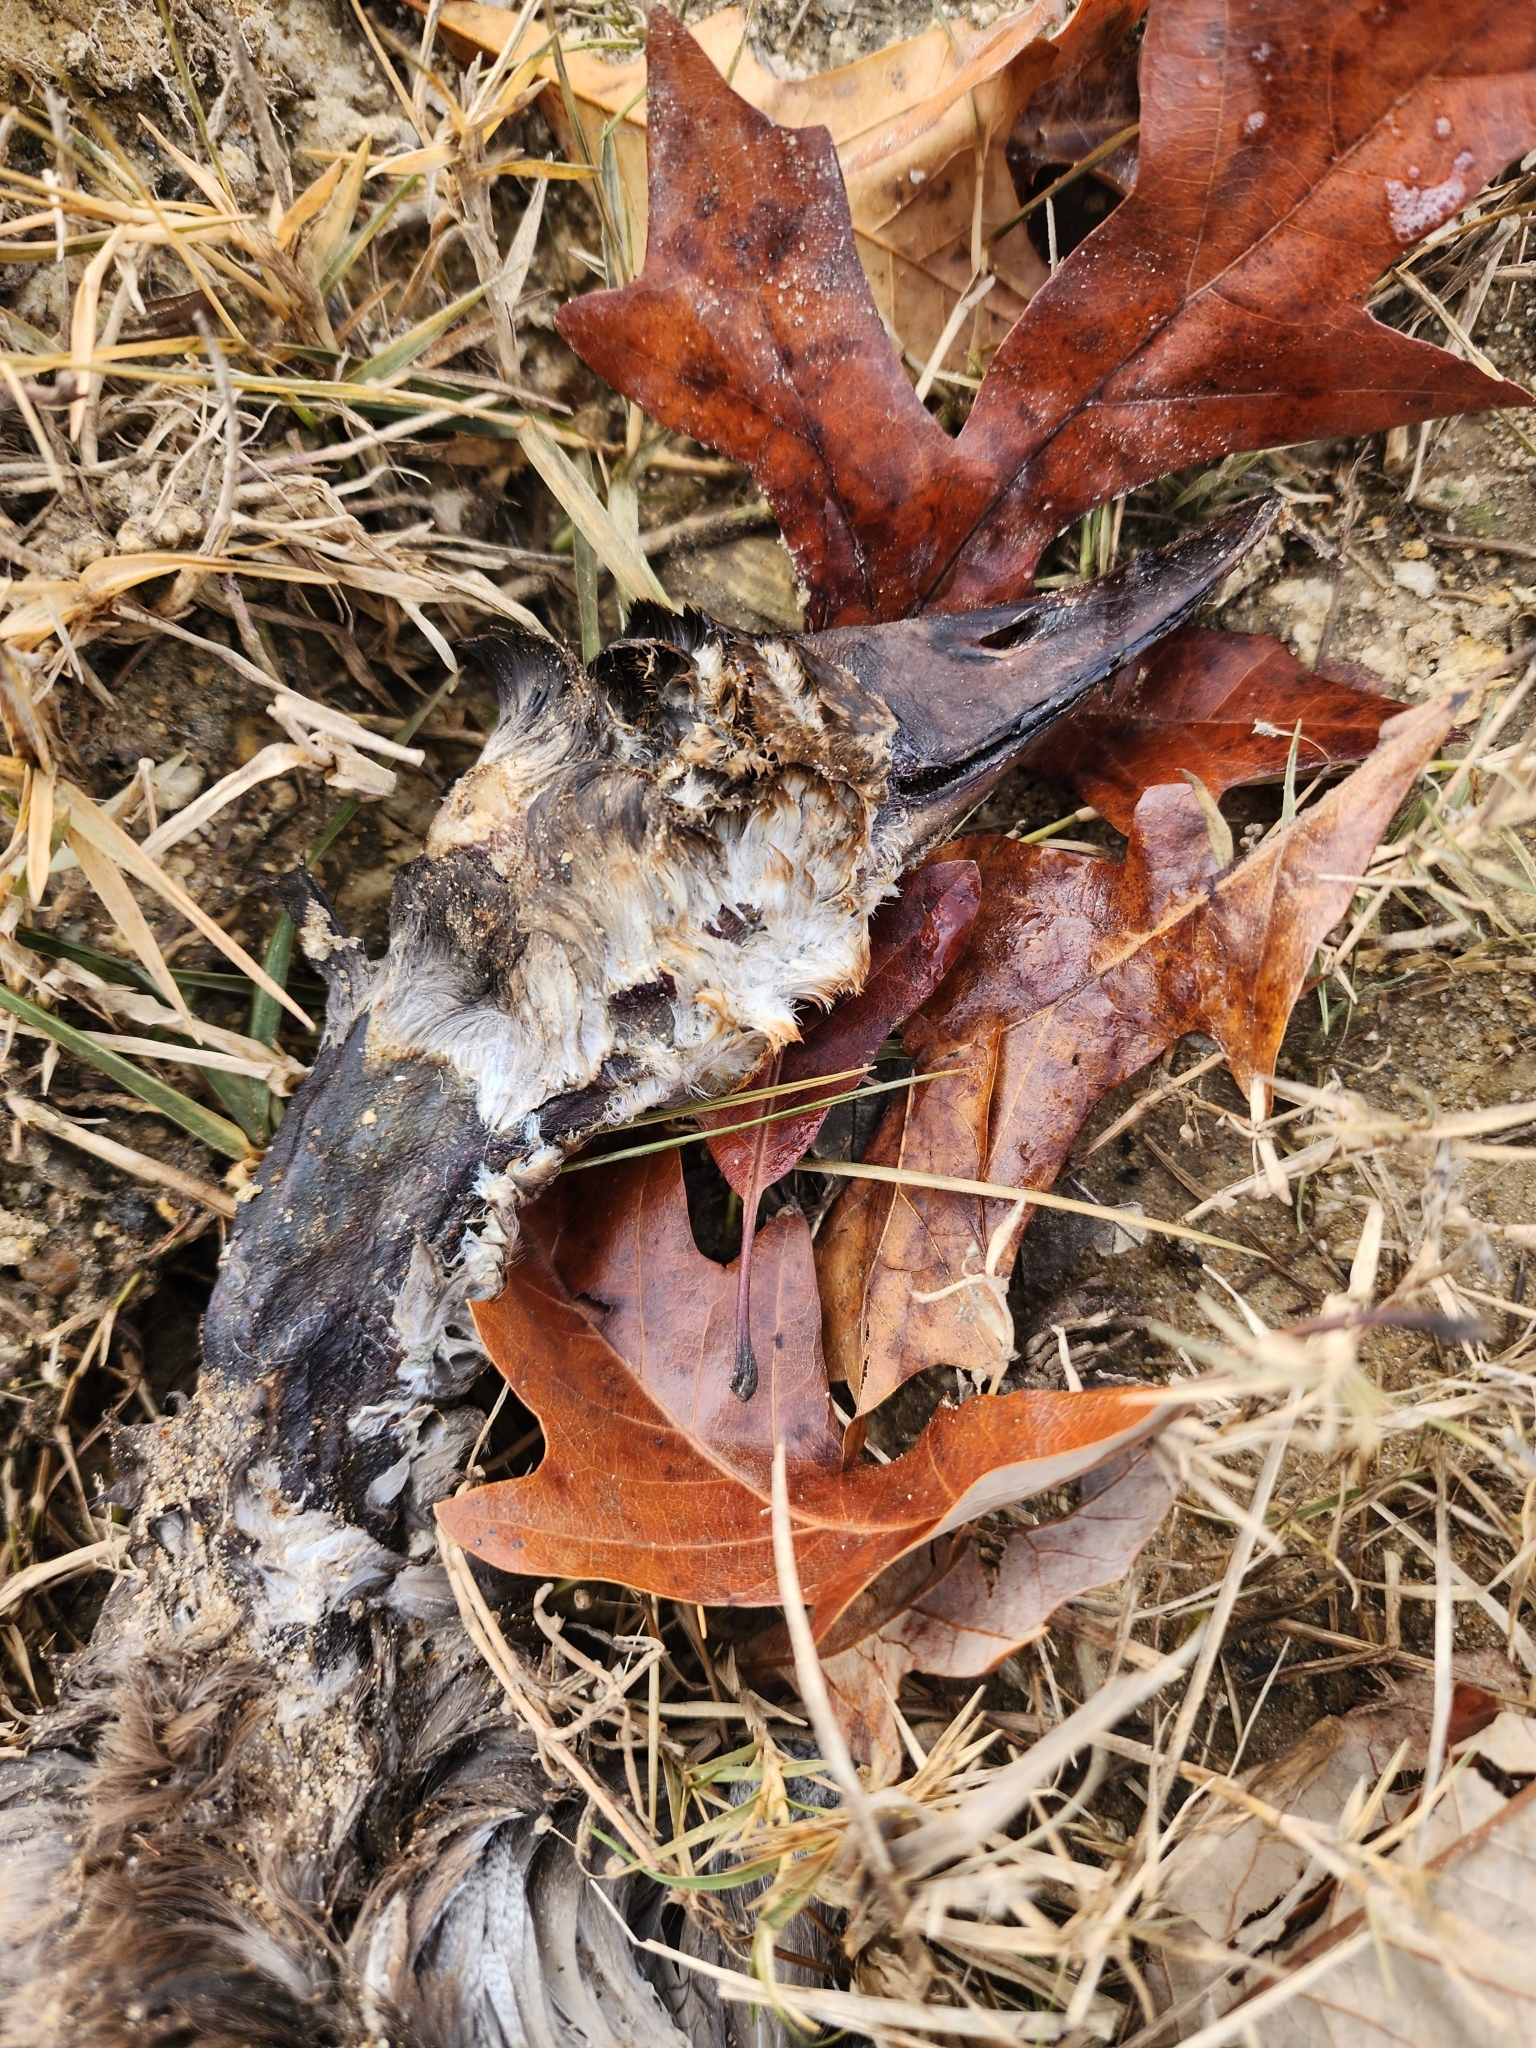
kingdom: Animalia
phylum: Chordata
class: Aves
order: Anseriformes
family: Anatidae
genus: Aythya
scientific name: Aythya valisineria
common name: Canvasback
